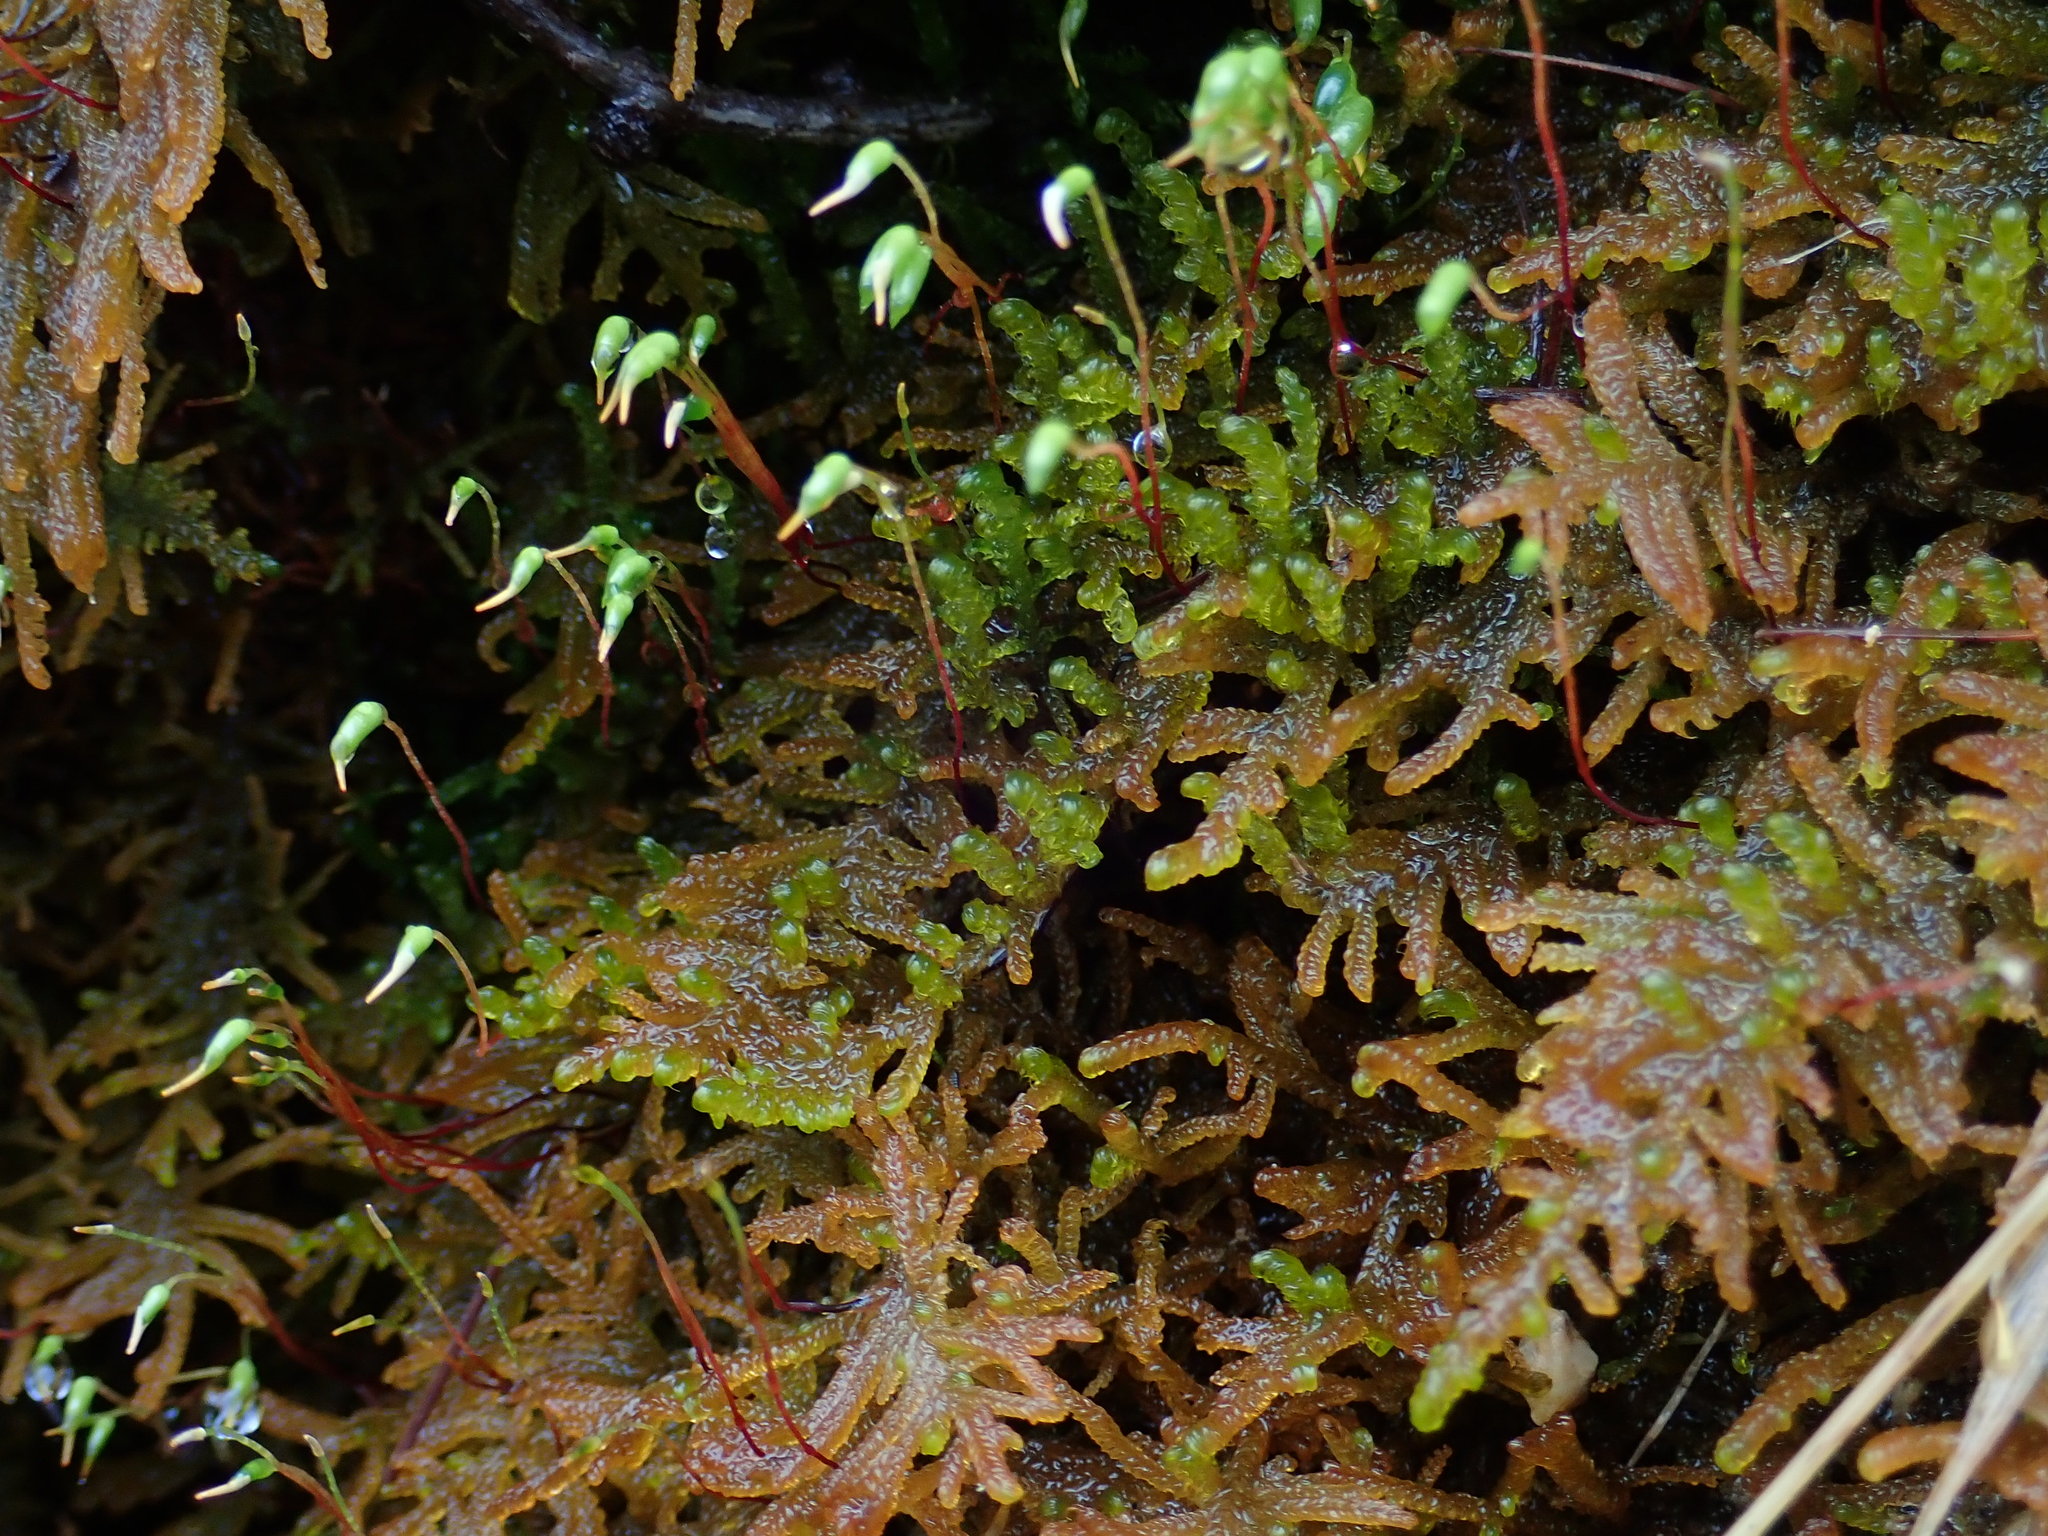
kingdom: Plantae
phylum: Bryophyta
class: Bryopsida
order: Hypnales
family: Amblystegiaceae
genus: Palustriella
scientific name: Palustriella commutata
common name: Curled hook-moss
